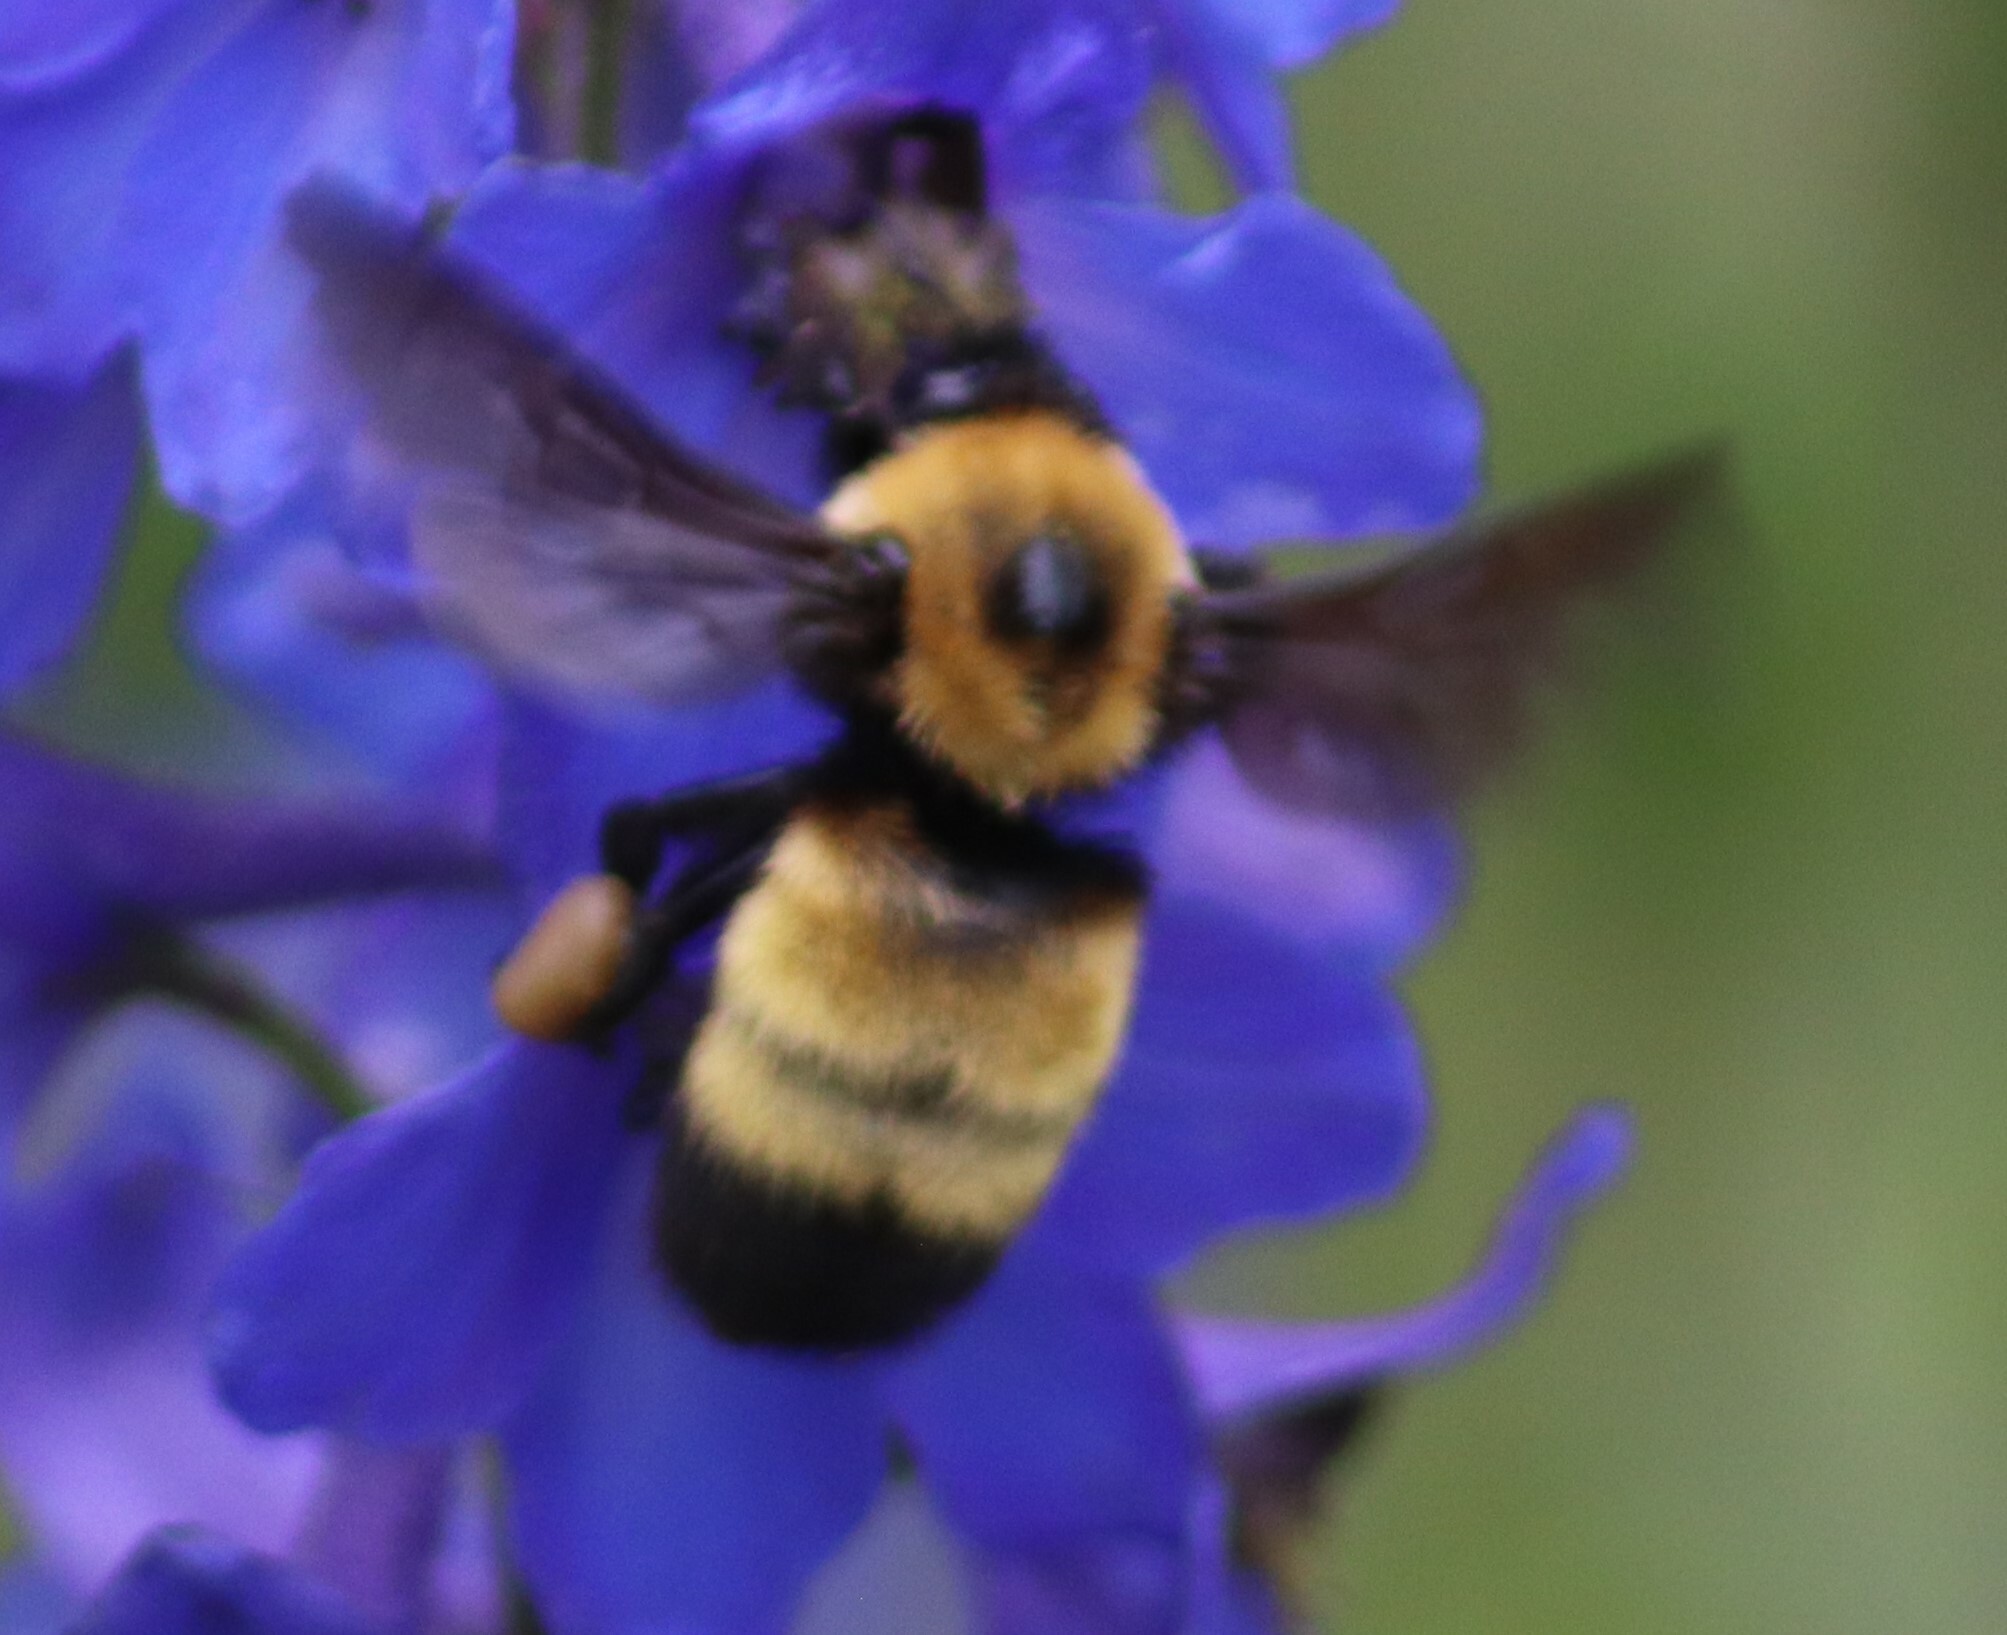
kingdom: Animalia
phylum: Arthropoda
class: Insecta
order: Hymenoptera
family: Apidae
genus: Bombus
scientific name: Bombus nevadensis
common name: Nevada bumble bee
